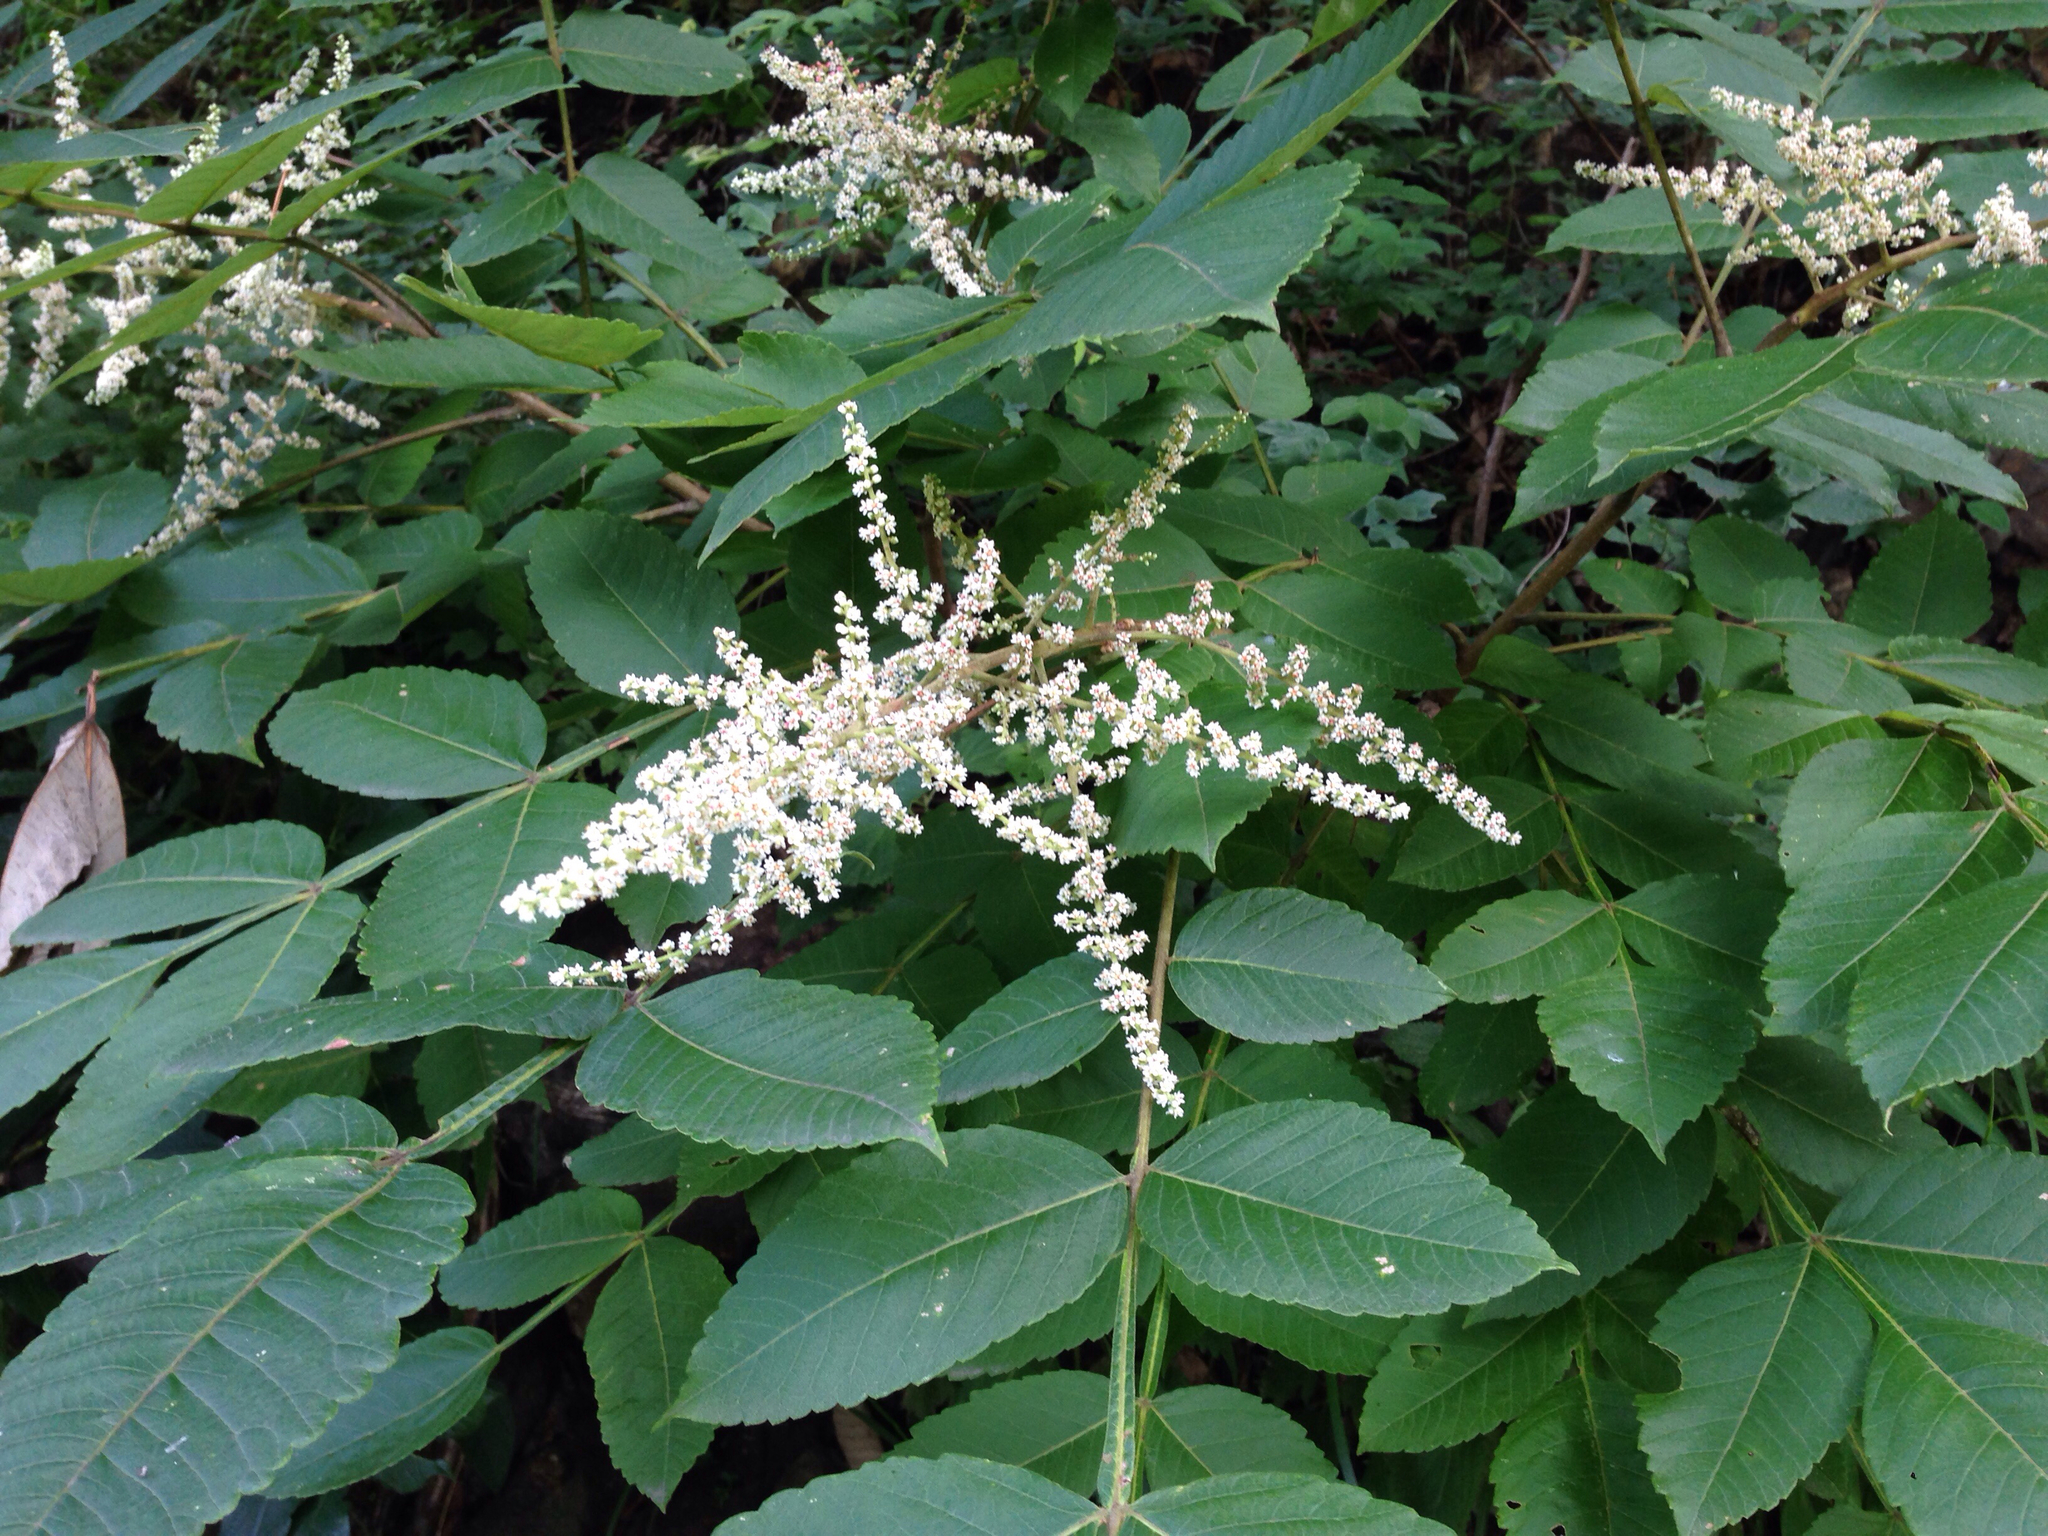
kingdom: Plantae
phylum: Tracheophyta
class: Magnoliopsida
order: Sapindales
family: Anacardiaceae
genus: Rhus
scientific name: Rhus chinensis
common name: Chinese gall
